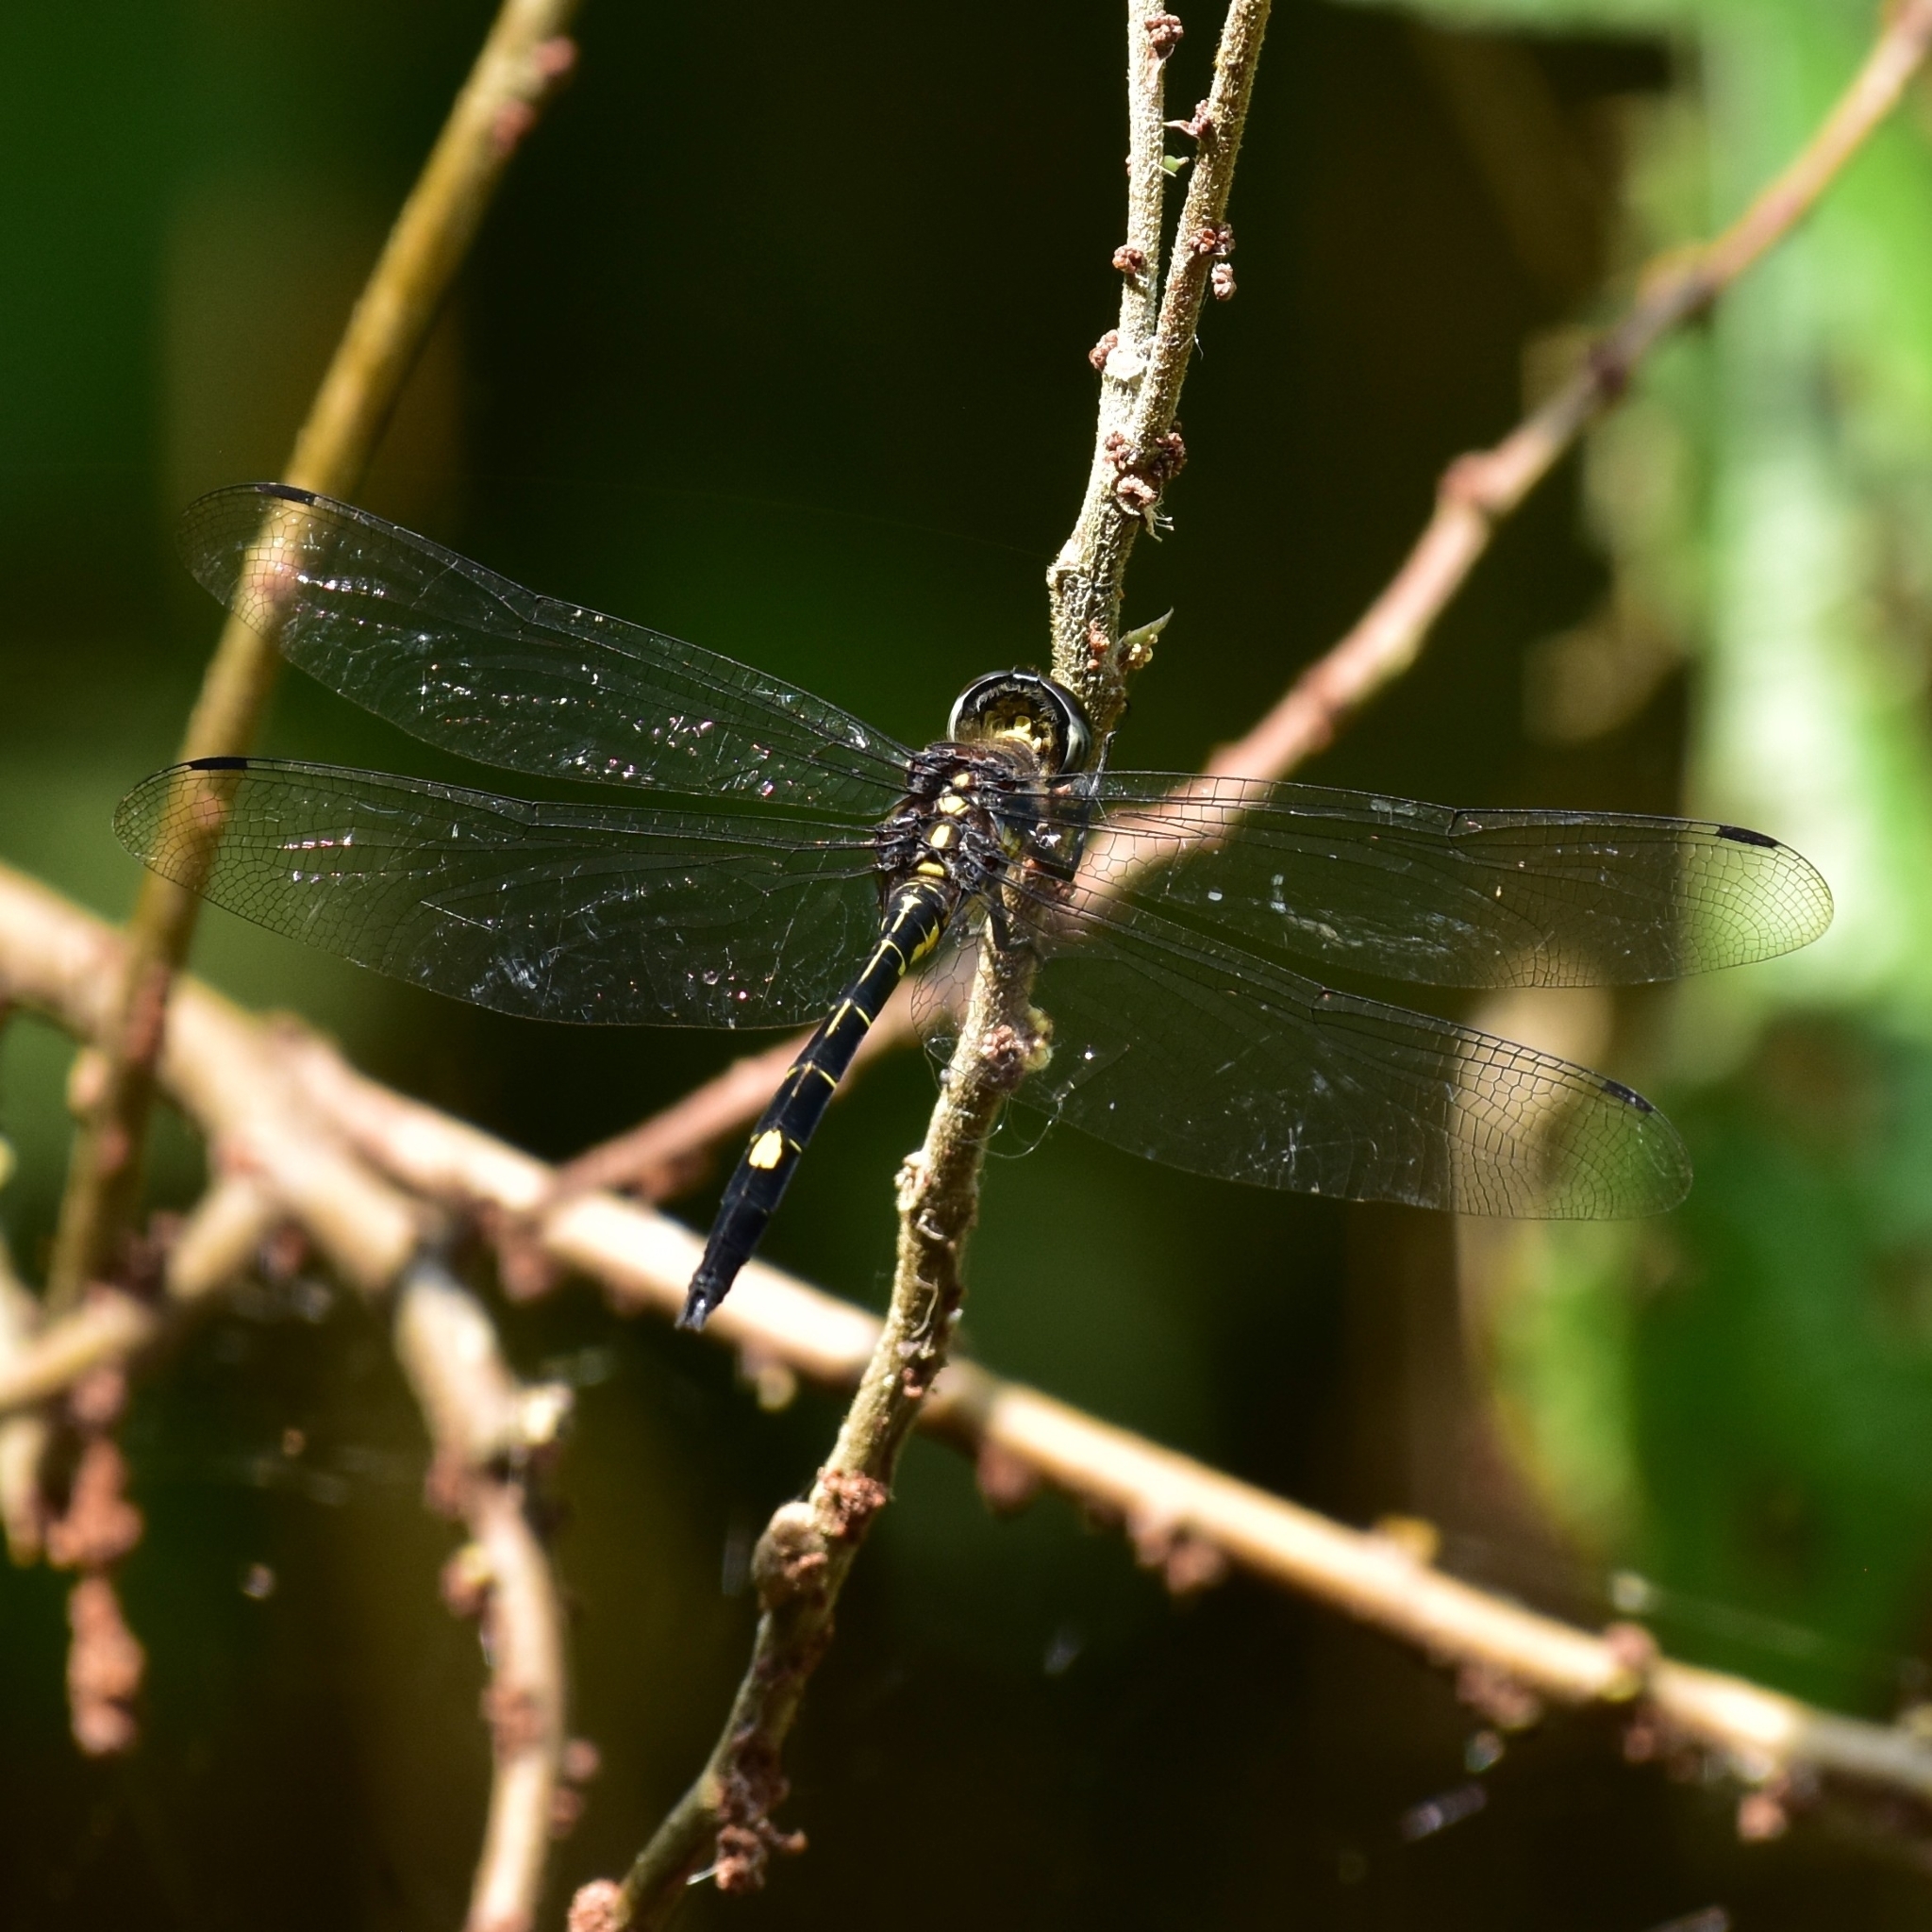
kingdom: Animalia
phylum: Arthropoda
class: Insecta
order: Odonata
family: Libellulidae
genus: Zygonyx
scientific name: Zygonyx iris
